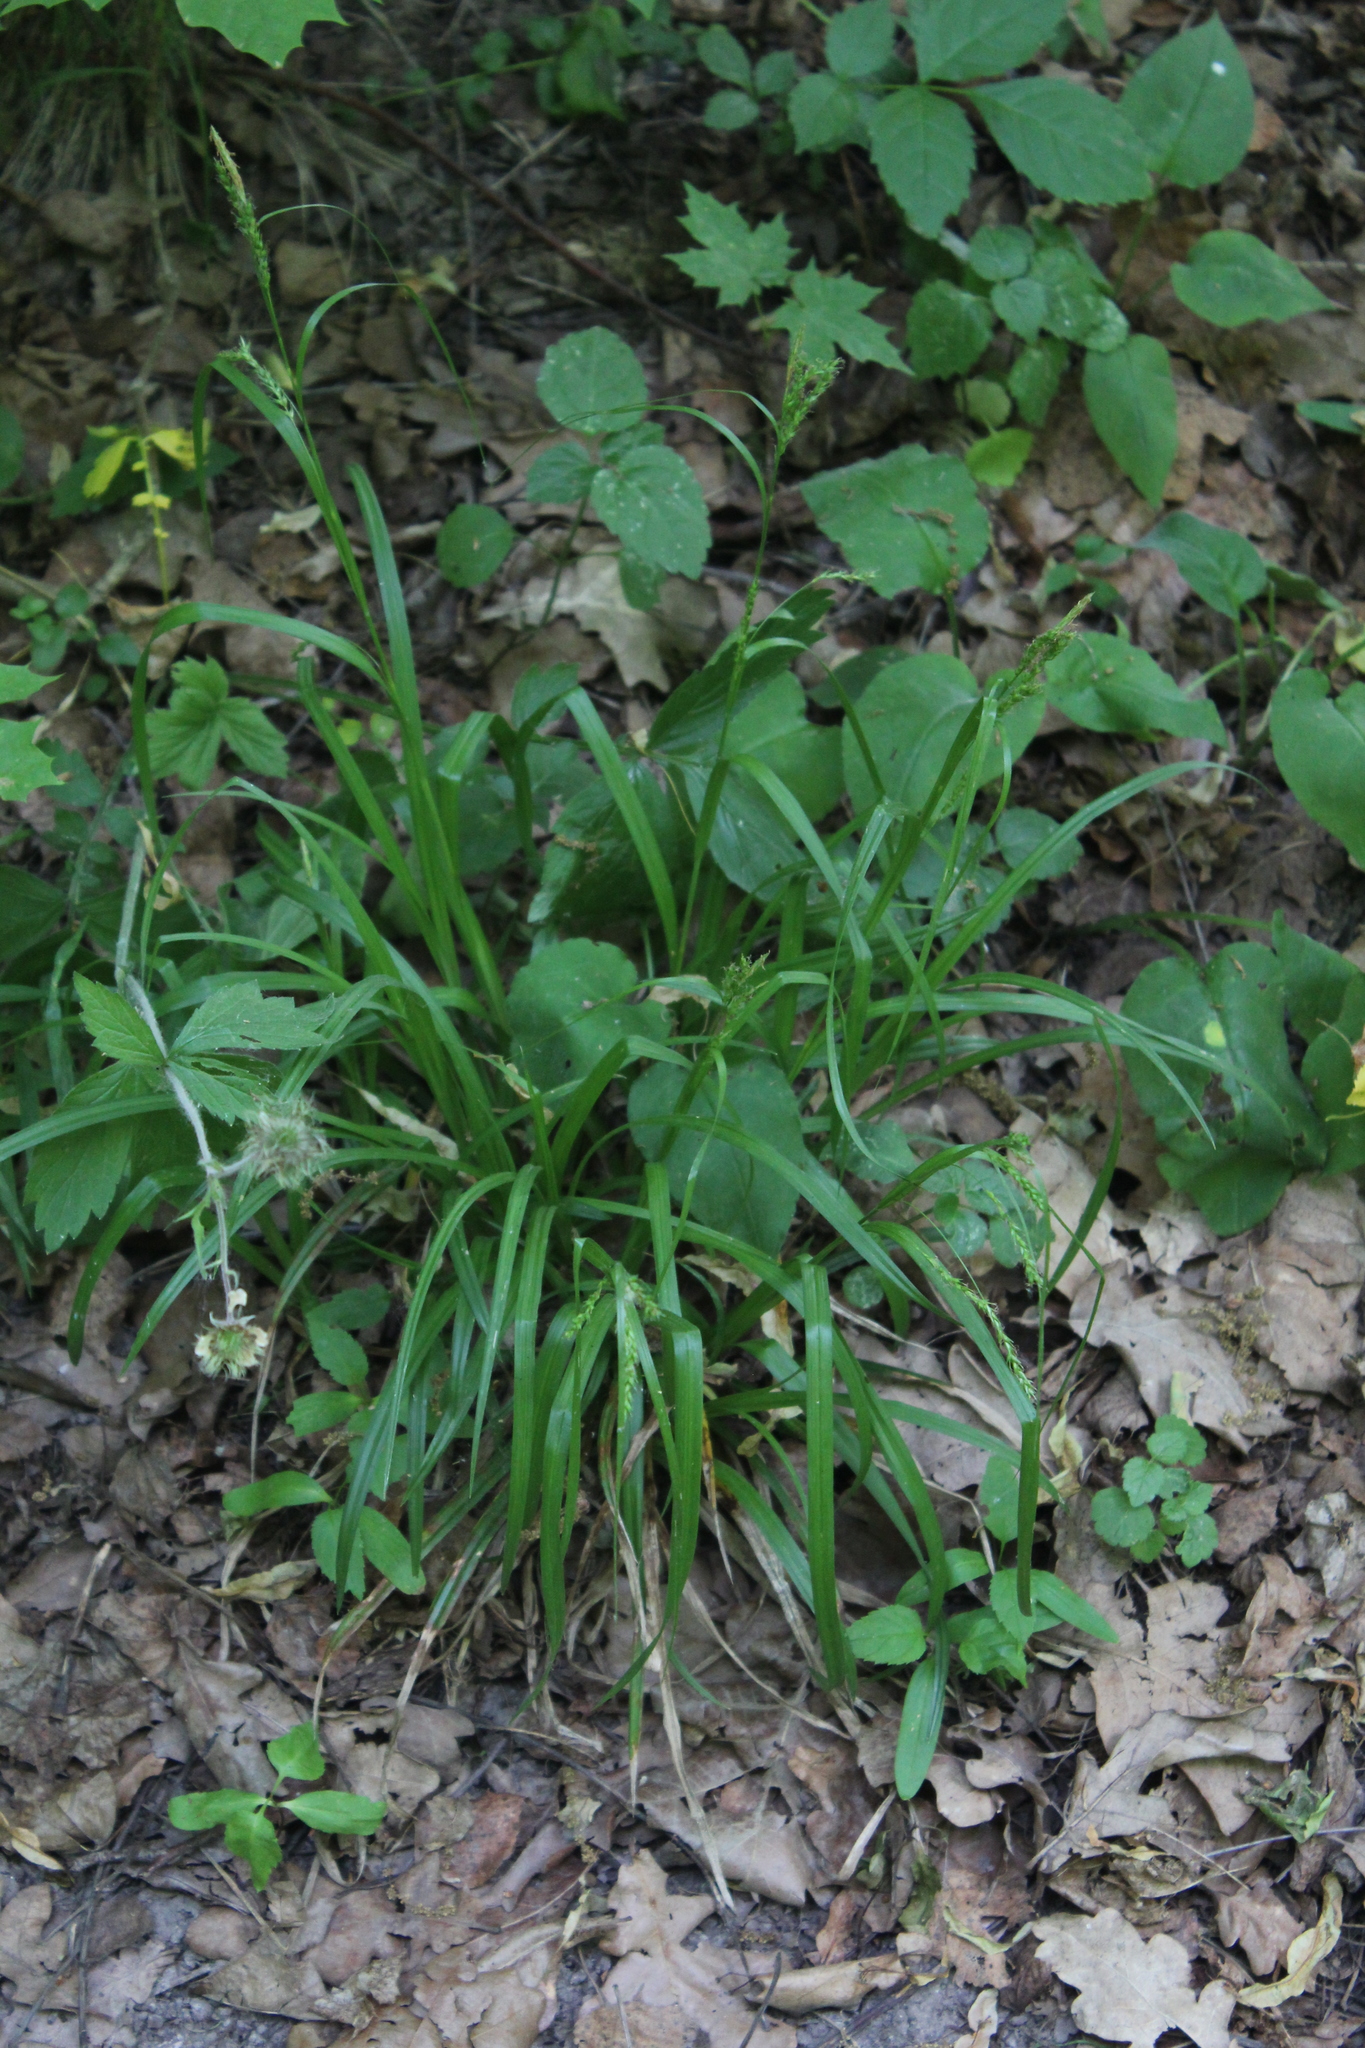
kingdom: Plantae
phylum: Tracheophyta
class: Liliopsida
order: Poales
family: Cyperaceae
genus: Carex
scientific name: Carex sylvatica
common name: Wood-sedge
